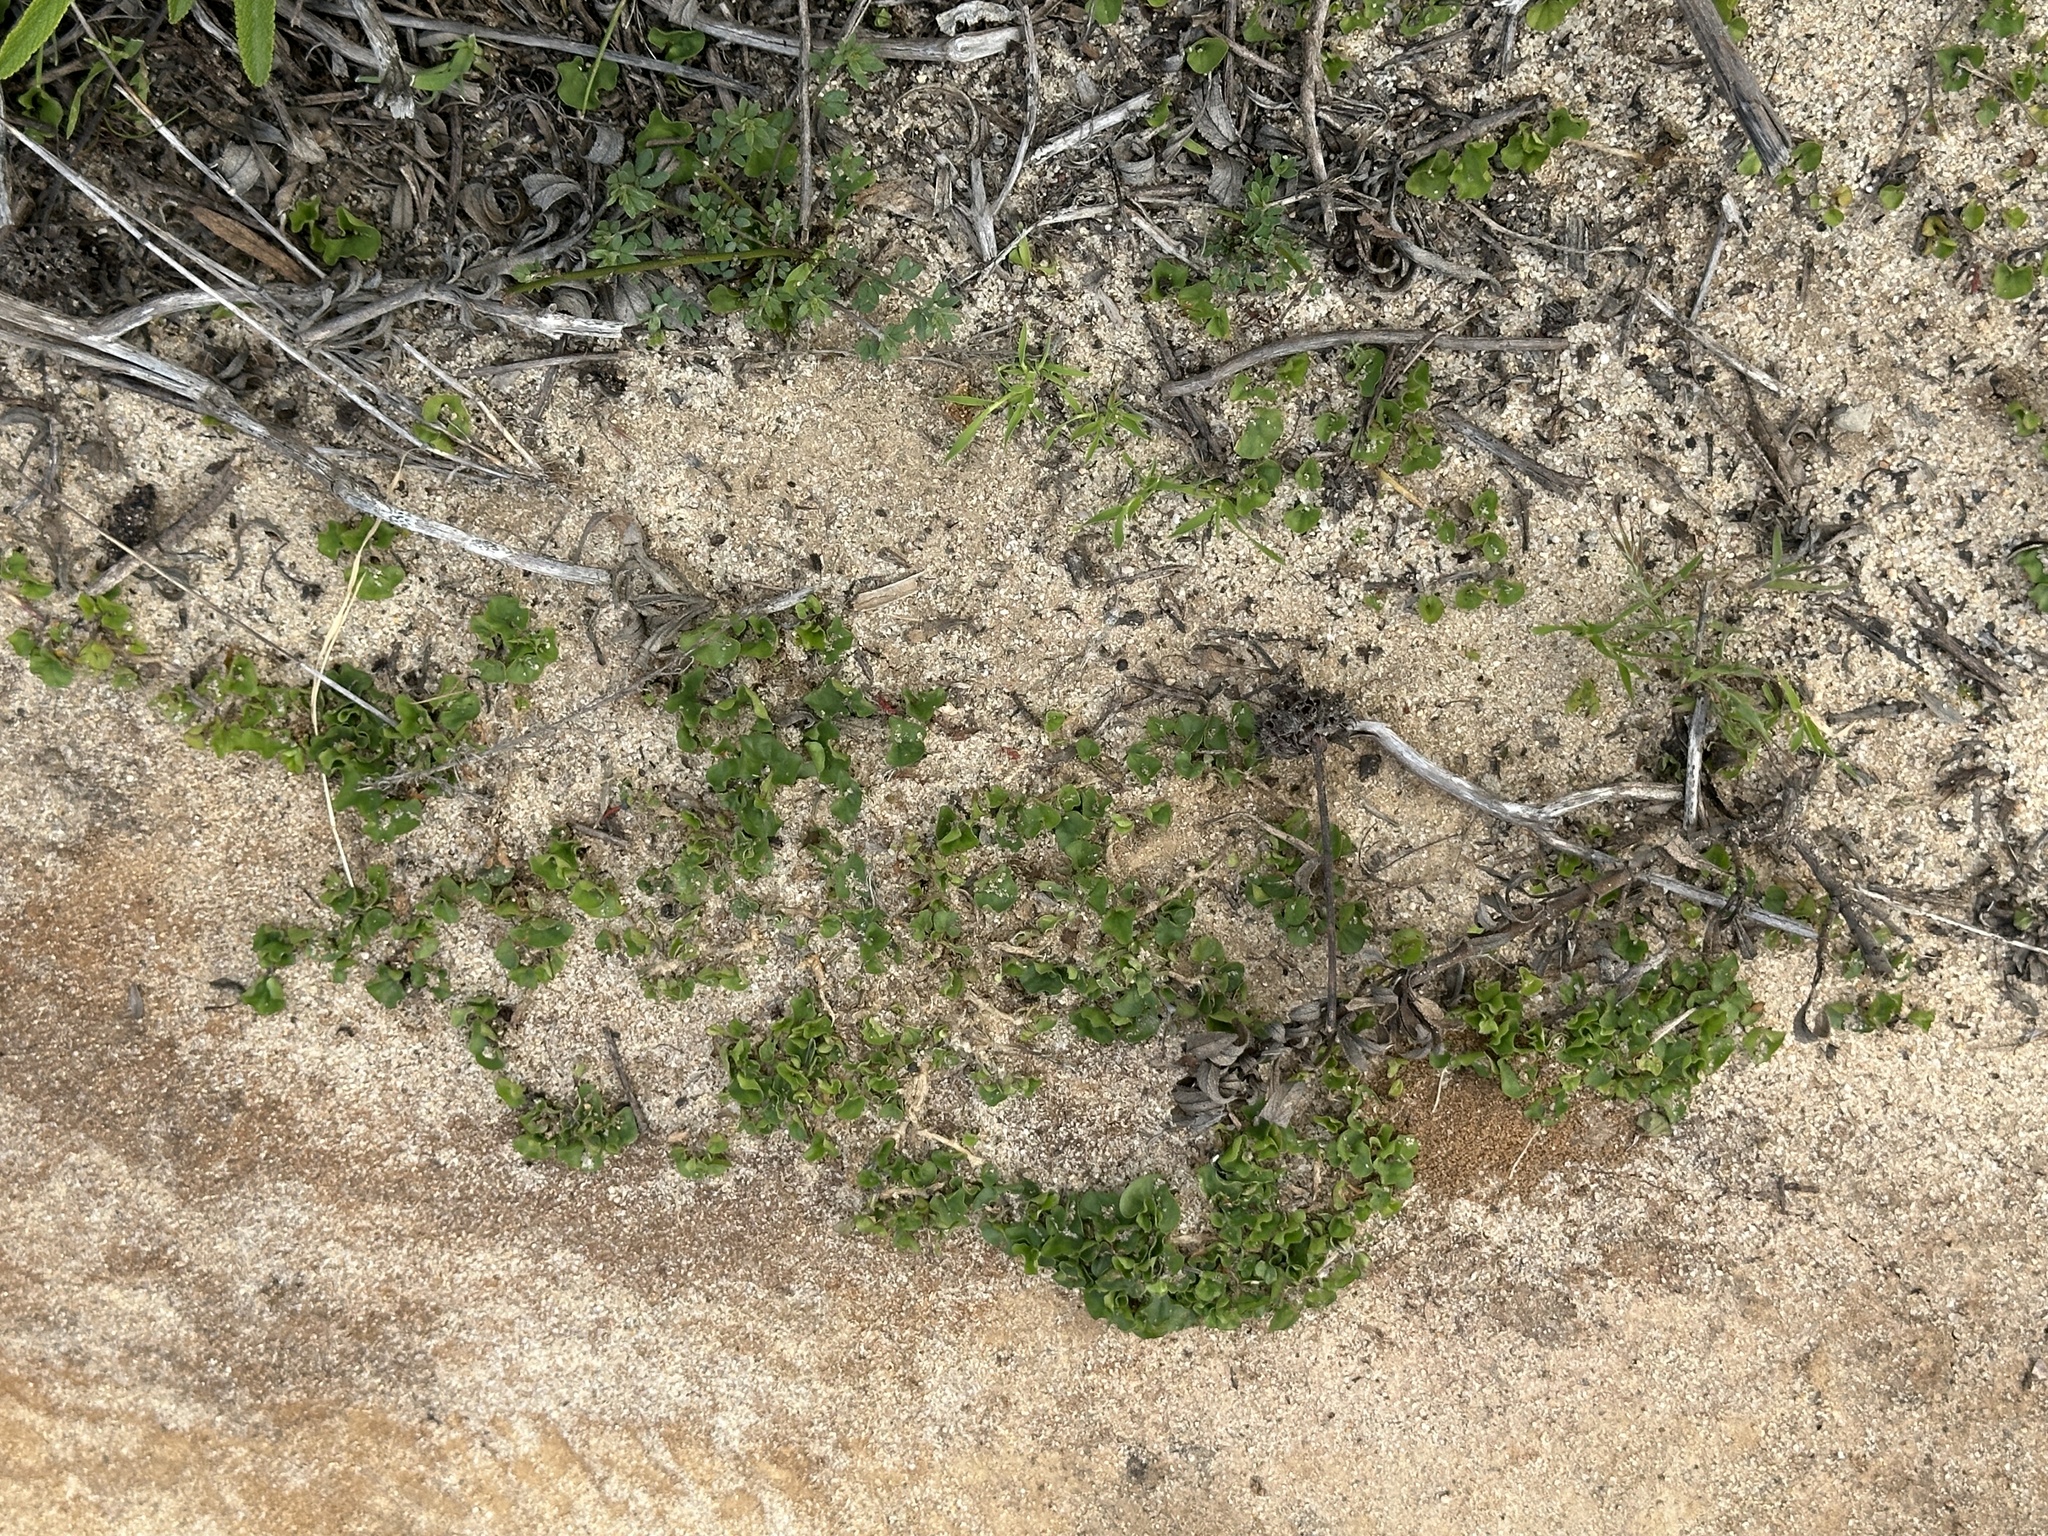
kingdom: Plantae
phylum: Tracheophyta
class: Magnoliopsida
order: Solanales
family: Convolvulaceae
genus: Dichondra
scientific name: Dichondra occidentalis
